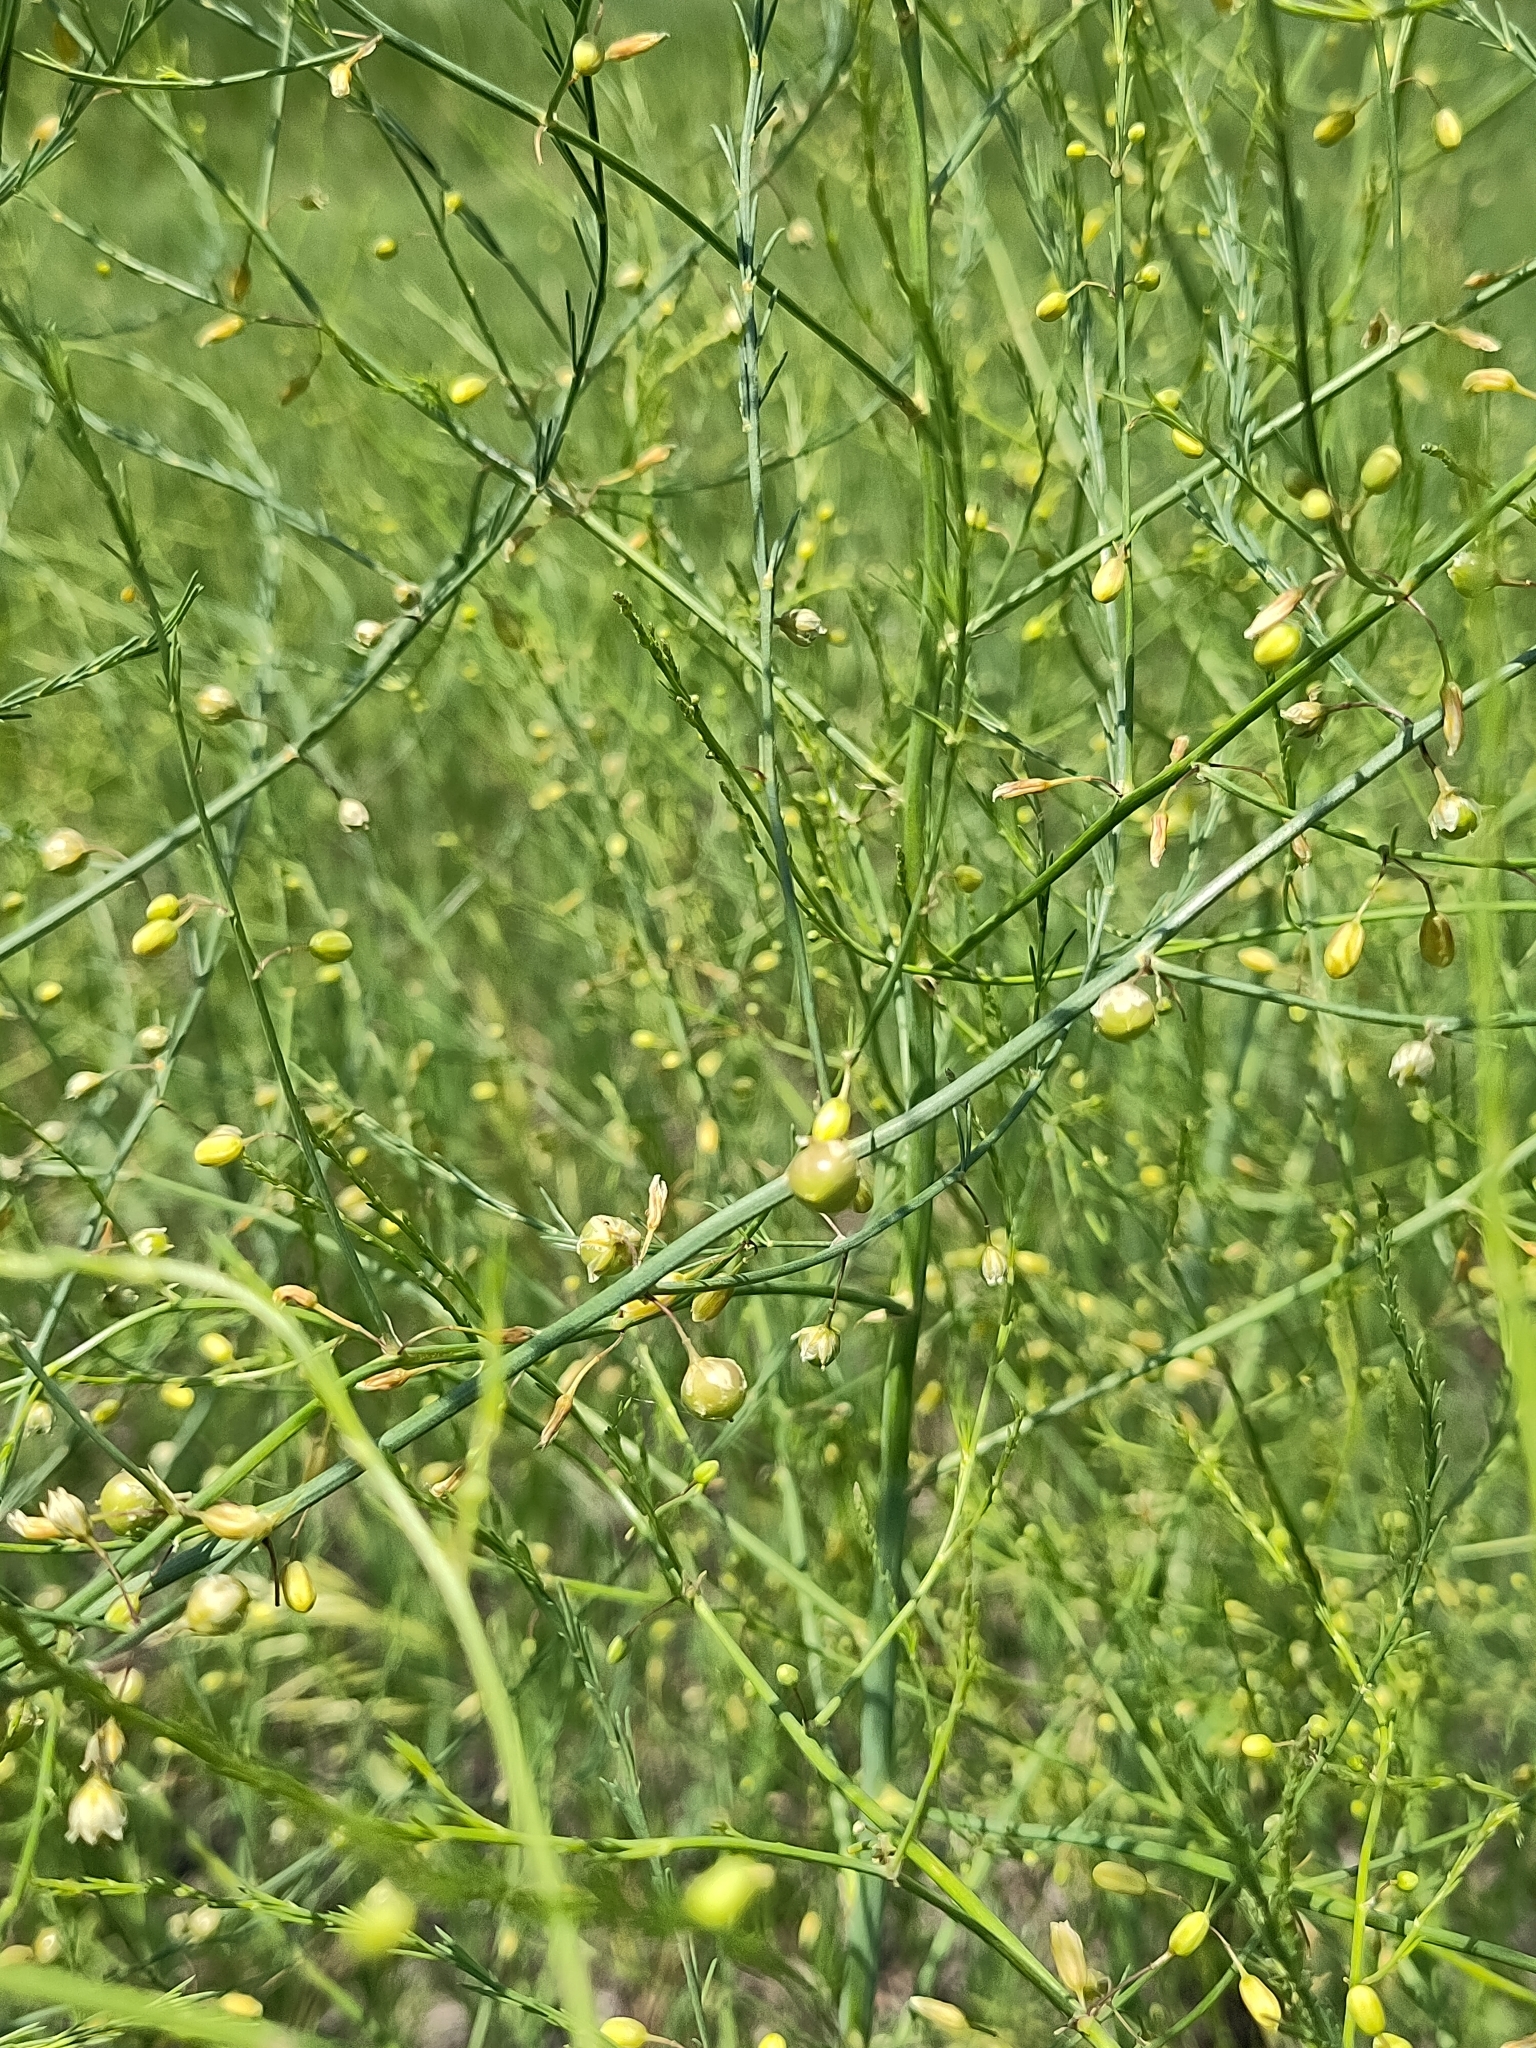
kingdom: Plantae
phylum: Tracheophyta
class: Liliopsida
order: Asparagales
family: Asparagaceae
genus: Asparagus
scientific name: Asparagus officinalis
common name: Garden asparagus
